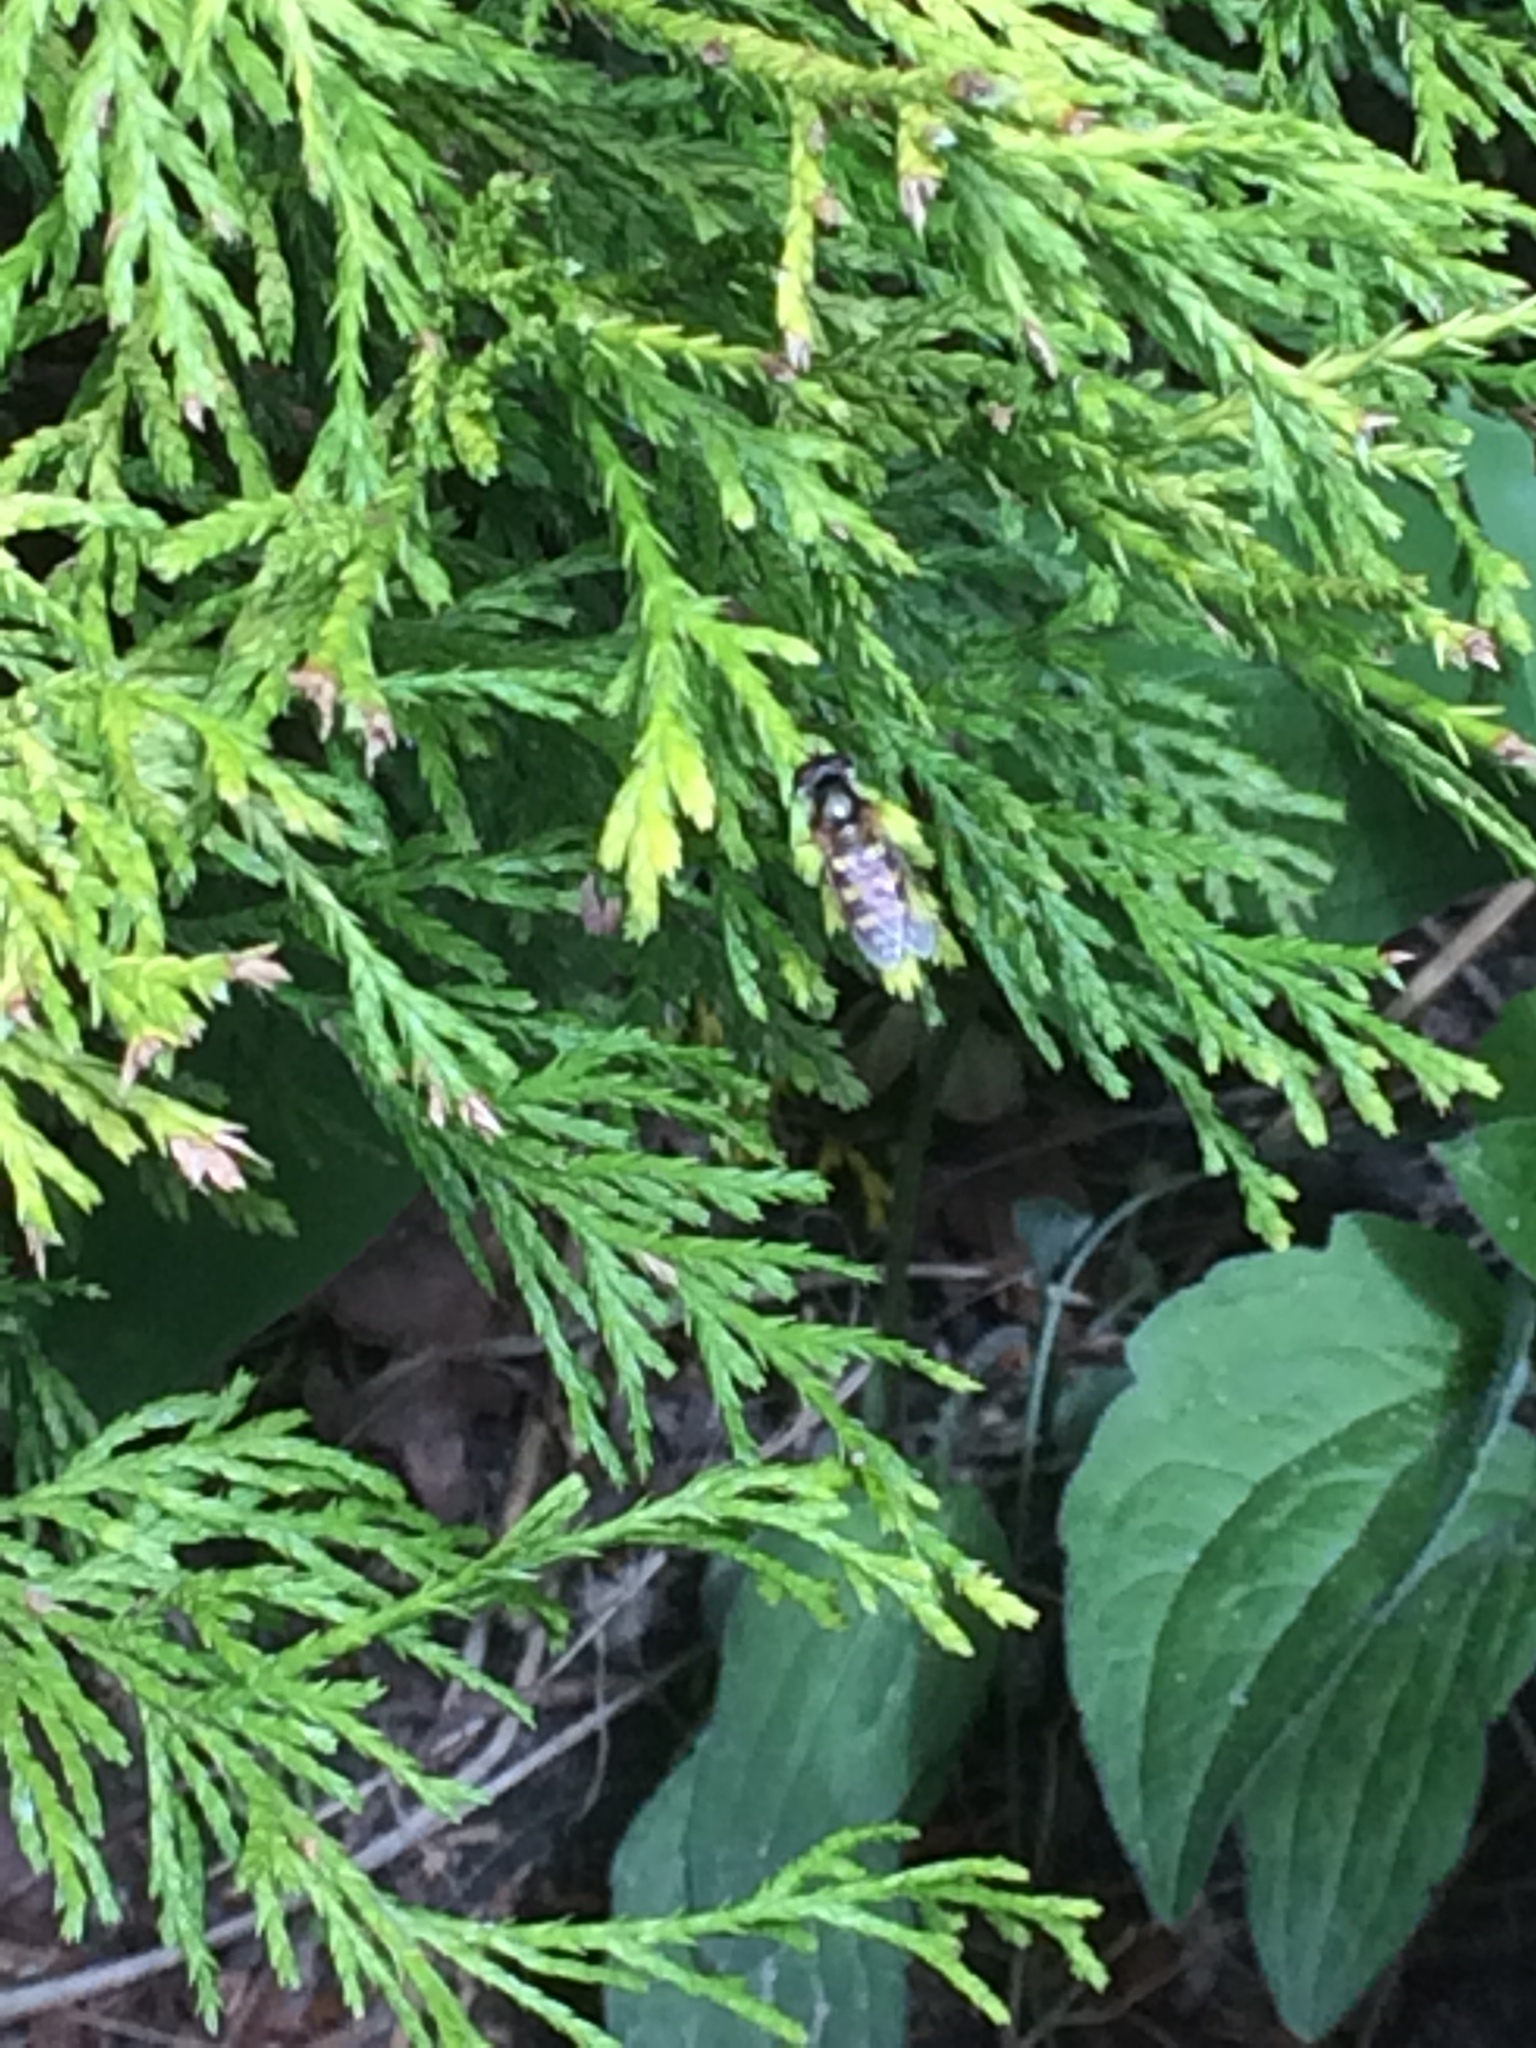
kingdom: Animalia
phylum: Arthropoda
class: Insecta
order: Diptera
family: Syrphidae
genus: Eupeodes
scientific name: Eupeodes
